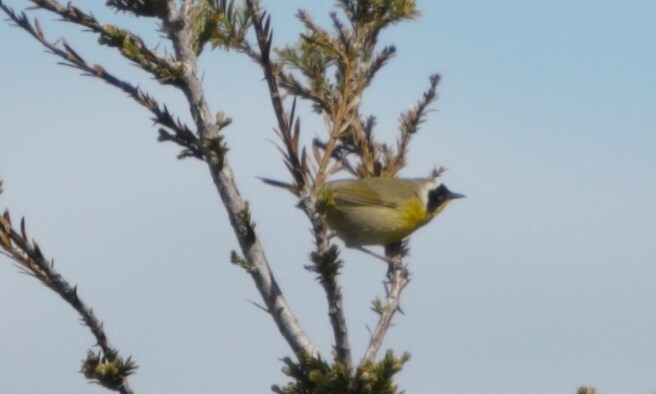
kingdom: Animalia
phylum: Chordata
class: Aves
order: Passeriformes
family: Parulidae
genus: Geothlypis
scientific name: Geothlypis trichas
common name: Common yellowthroat
